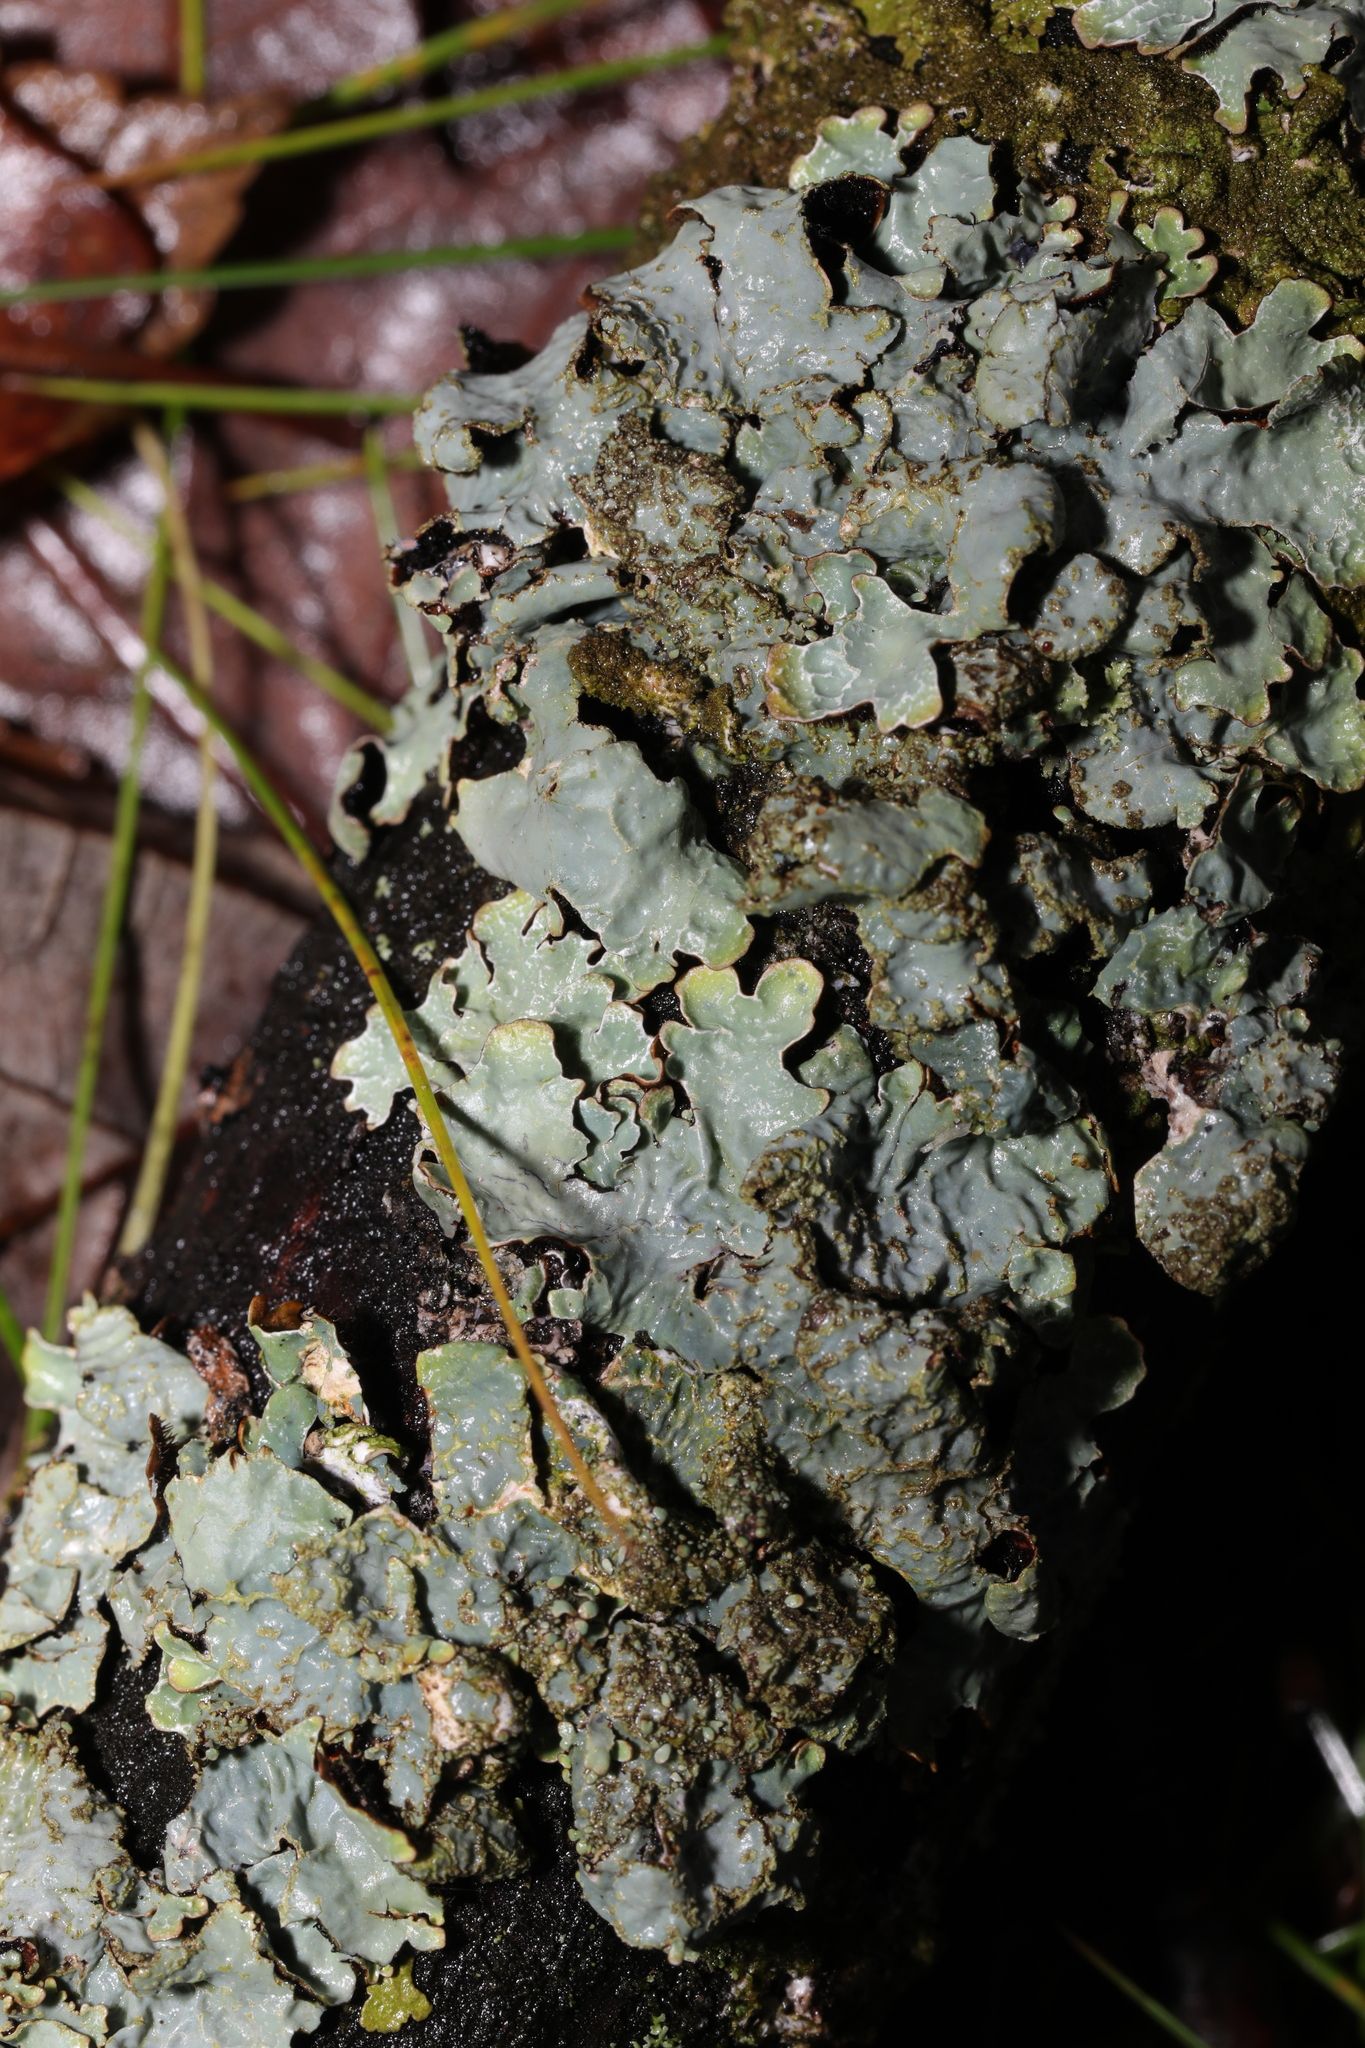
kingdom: Fungi
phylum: Ascomycota
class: Lecanoromycetes
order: Lecanorales
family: Parmeliaceae
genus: Parmelia
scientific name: Parmelia sulcata
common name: Netted shield lichen
